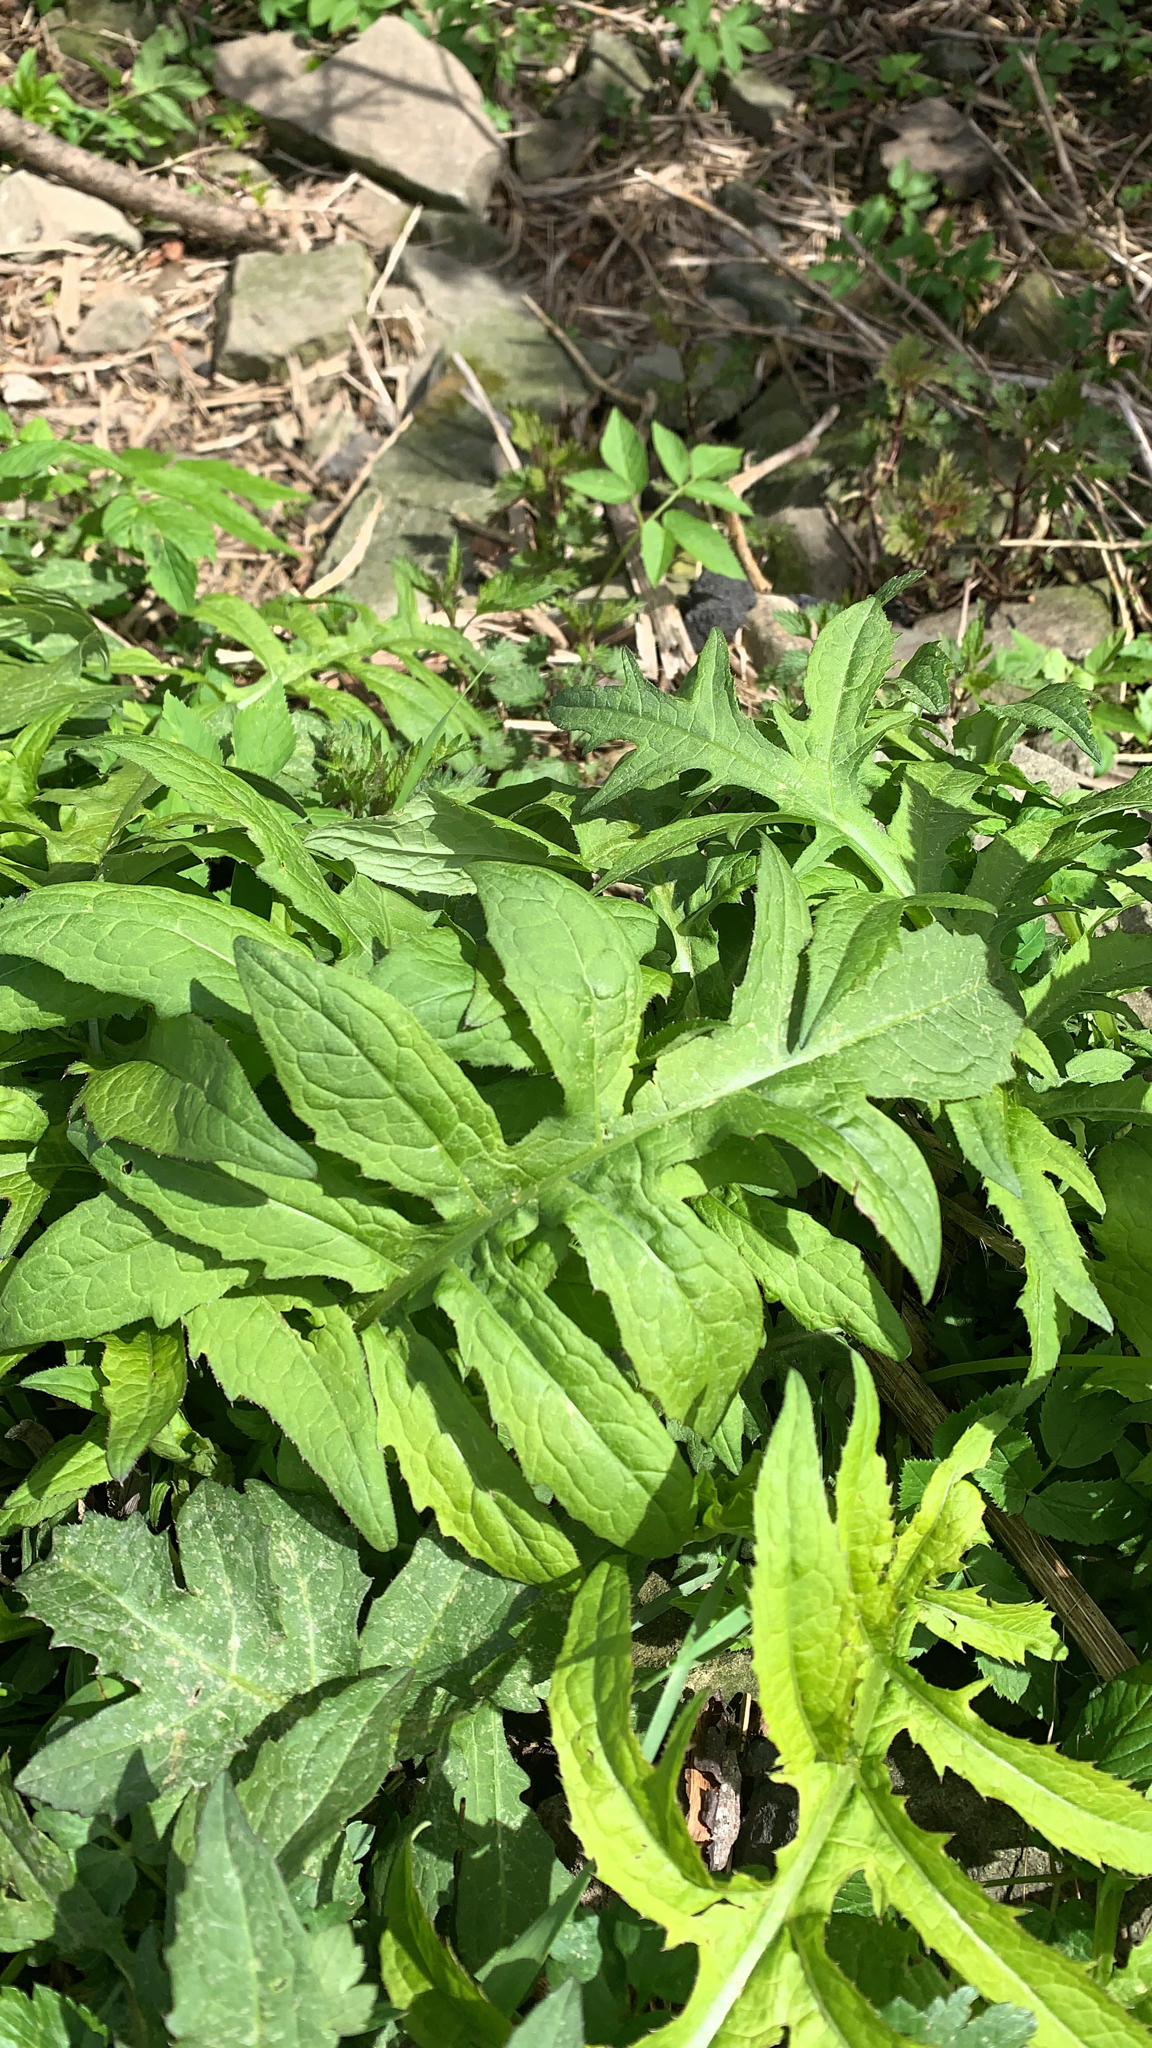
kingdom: Plantae
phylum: Tracheophyta
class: Magnoliopsida
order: Asterales
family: Asteraceae
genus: Cirsium
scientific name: Cirsium oleraceum
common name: Cabbage thistle
